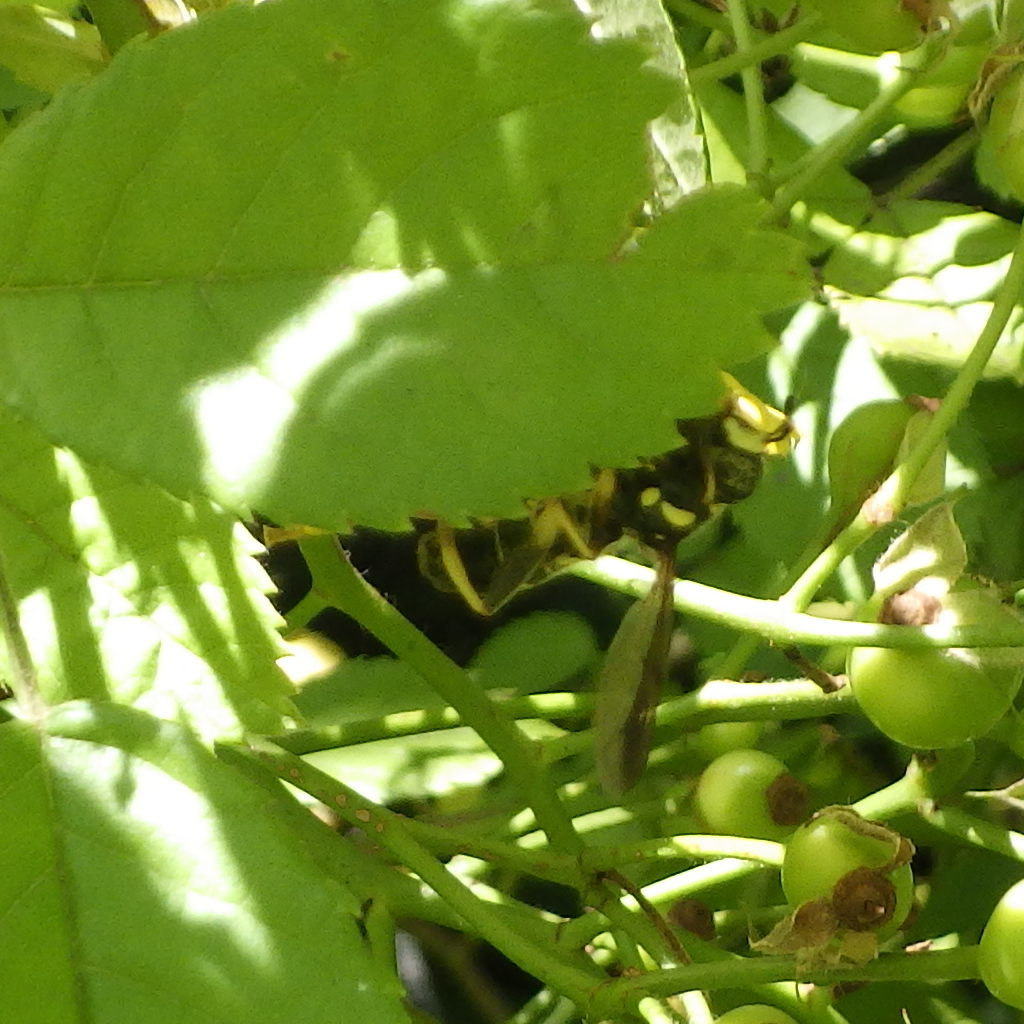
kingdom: Animalia
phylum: Arthropoda
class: Insecta
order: Diptera
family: Syrphidae
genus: Spilomyia
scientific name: Spilomyia sayi
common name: Four-lined hornet fly
